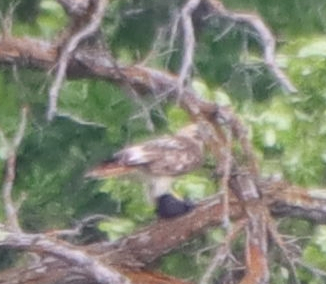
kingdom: Animalia
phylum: Chordata
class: Aves
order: Accipitriformes
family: Accipitridae
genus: Buteo
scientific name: Buteo jamaicensis
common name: Red-tailed hawk
